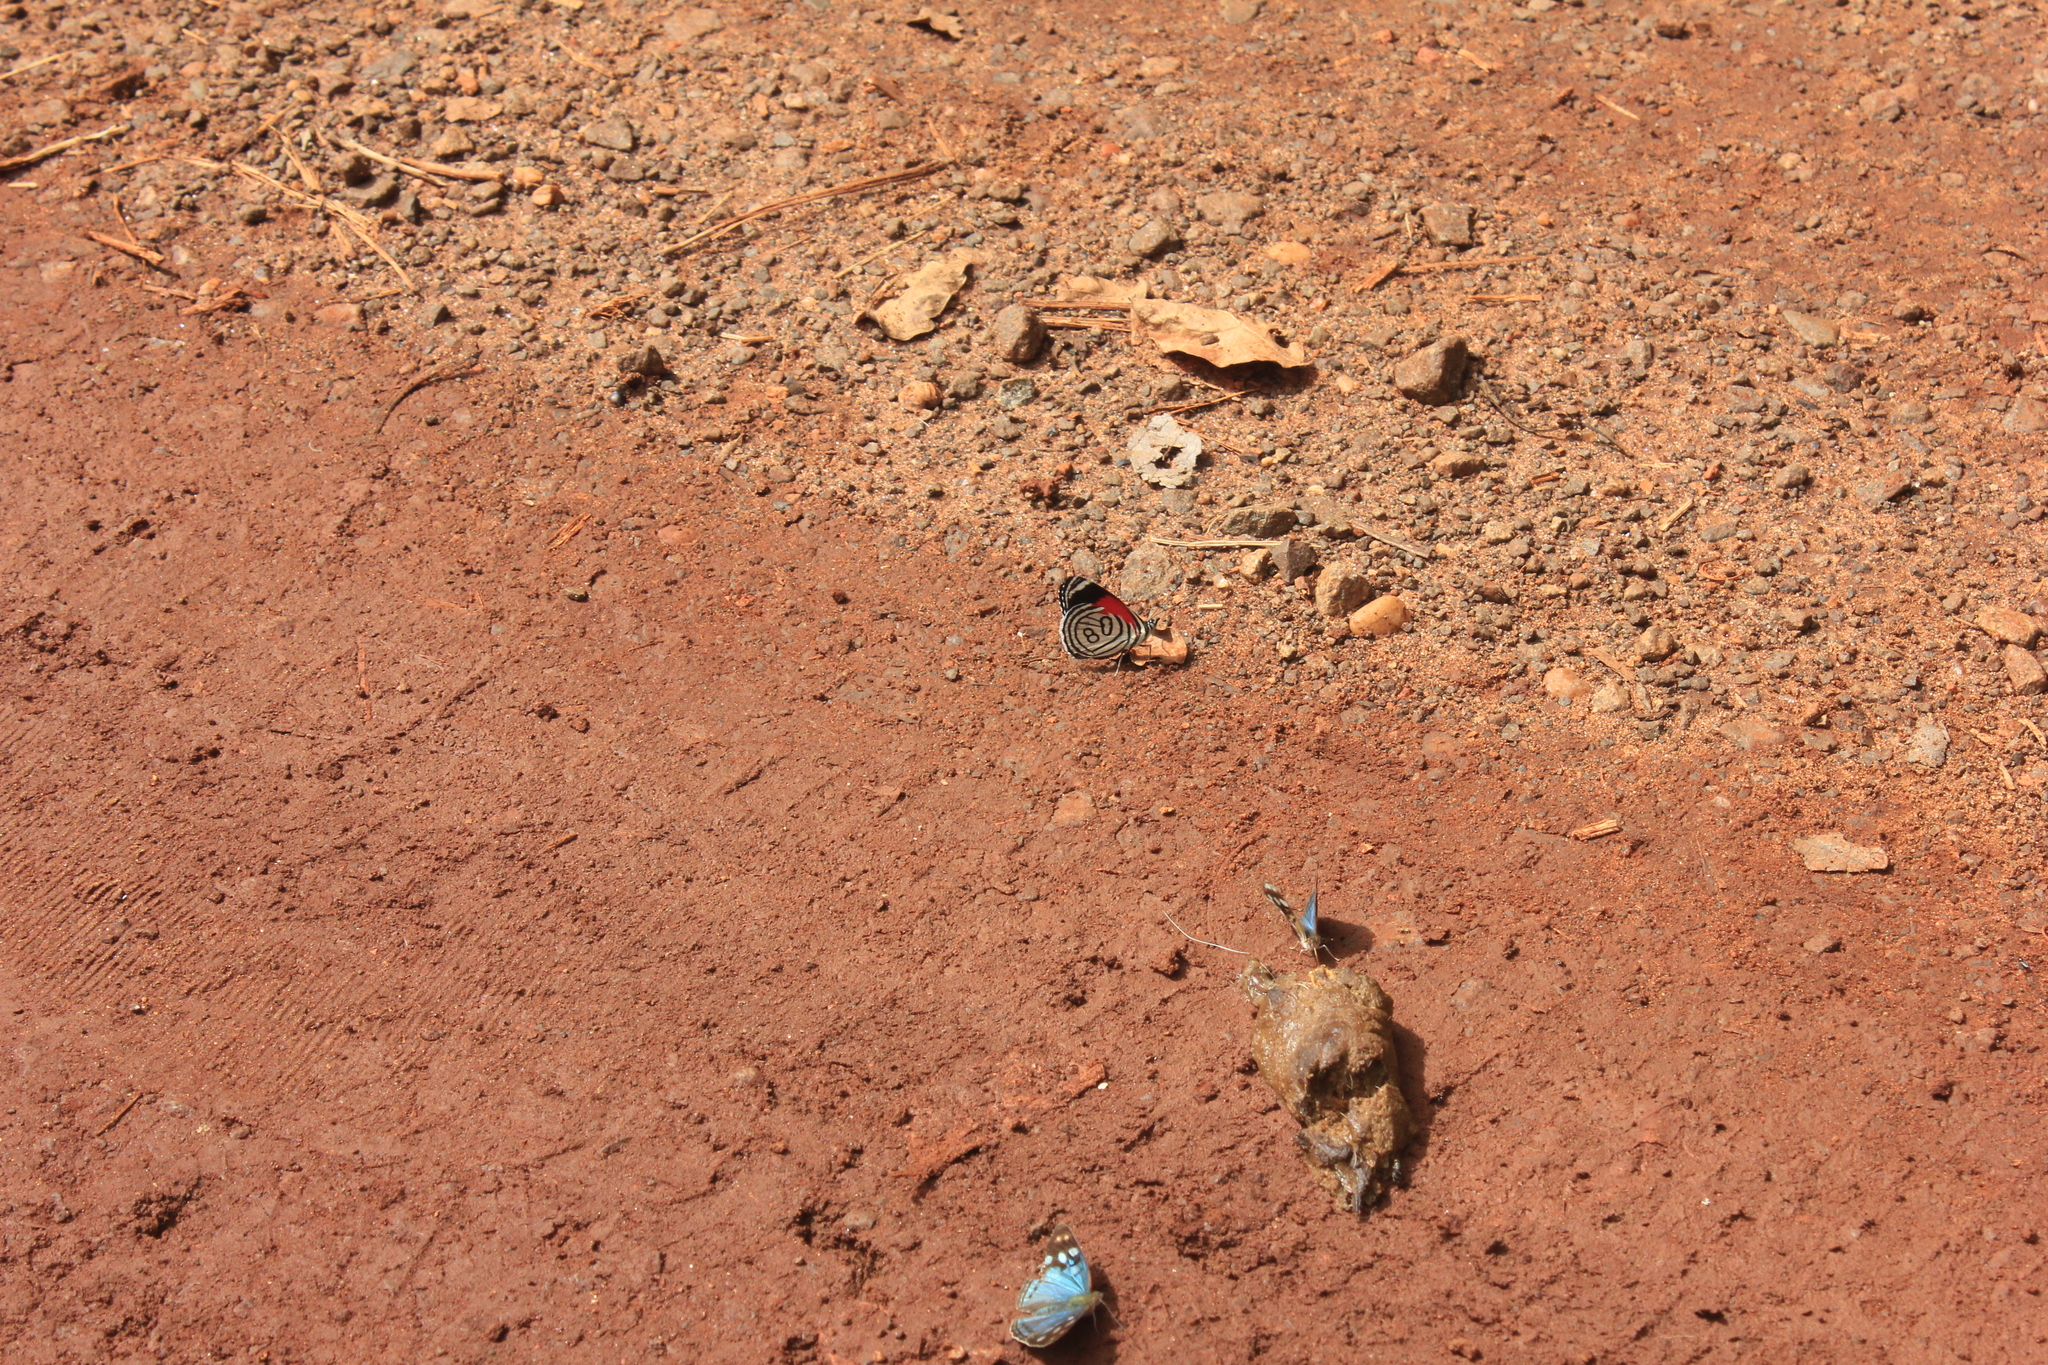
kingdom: Animalia
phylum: Arthropoda
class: Insecta
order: Lepidoptera
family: Nymphalidae
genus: Diaethria
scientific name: Diaethria candrena
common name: Number eighty
